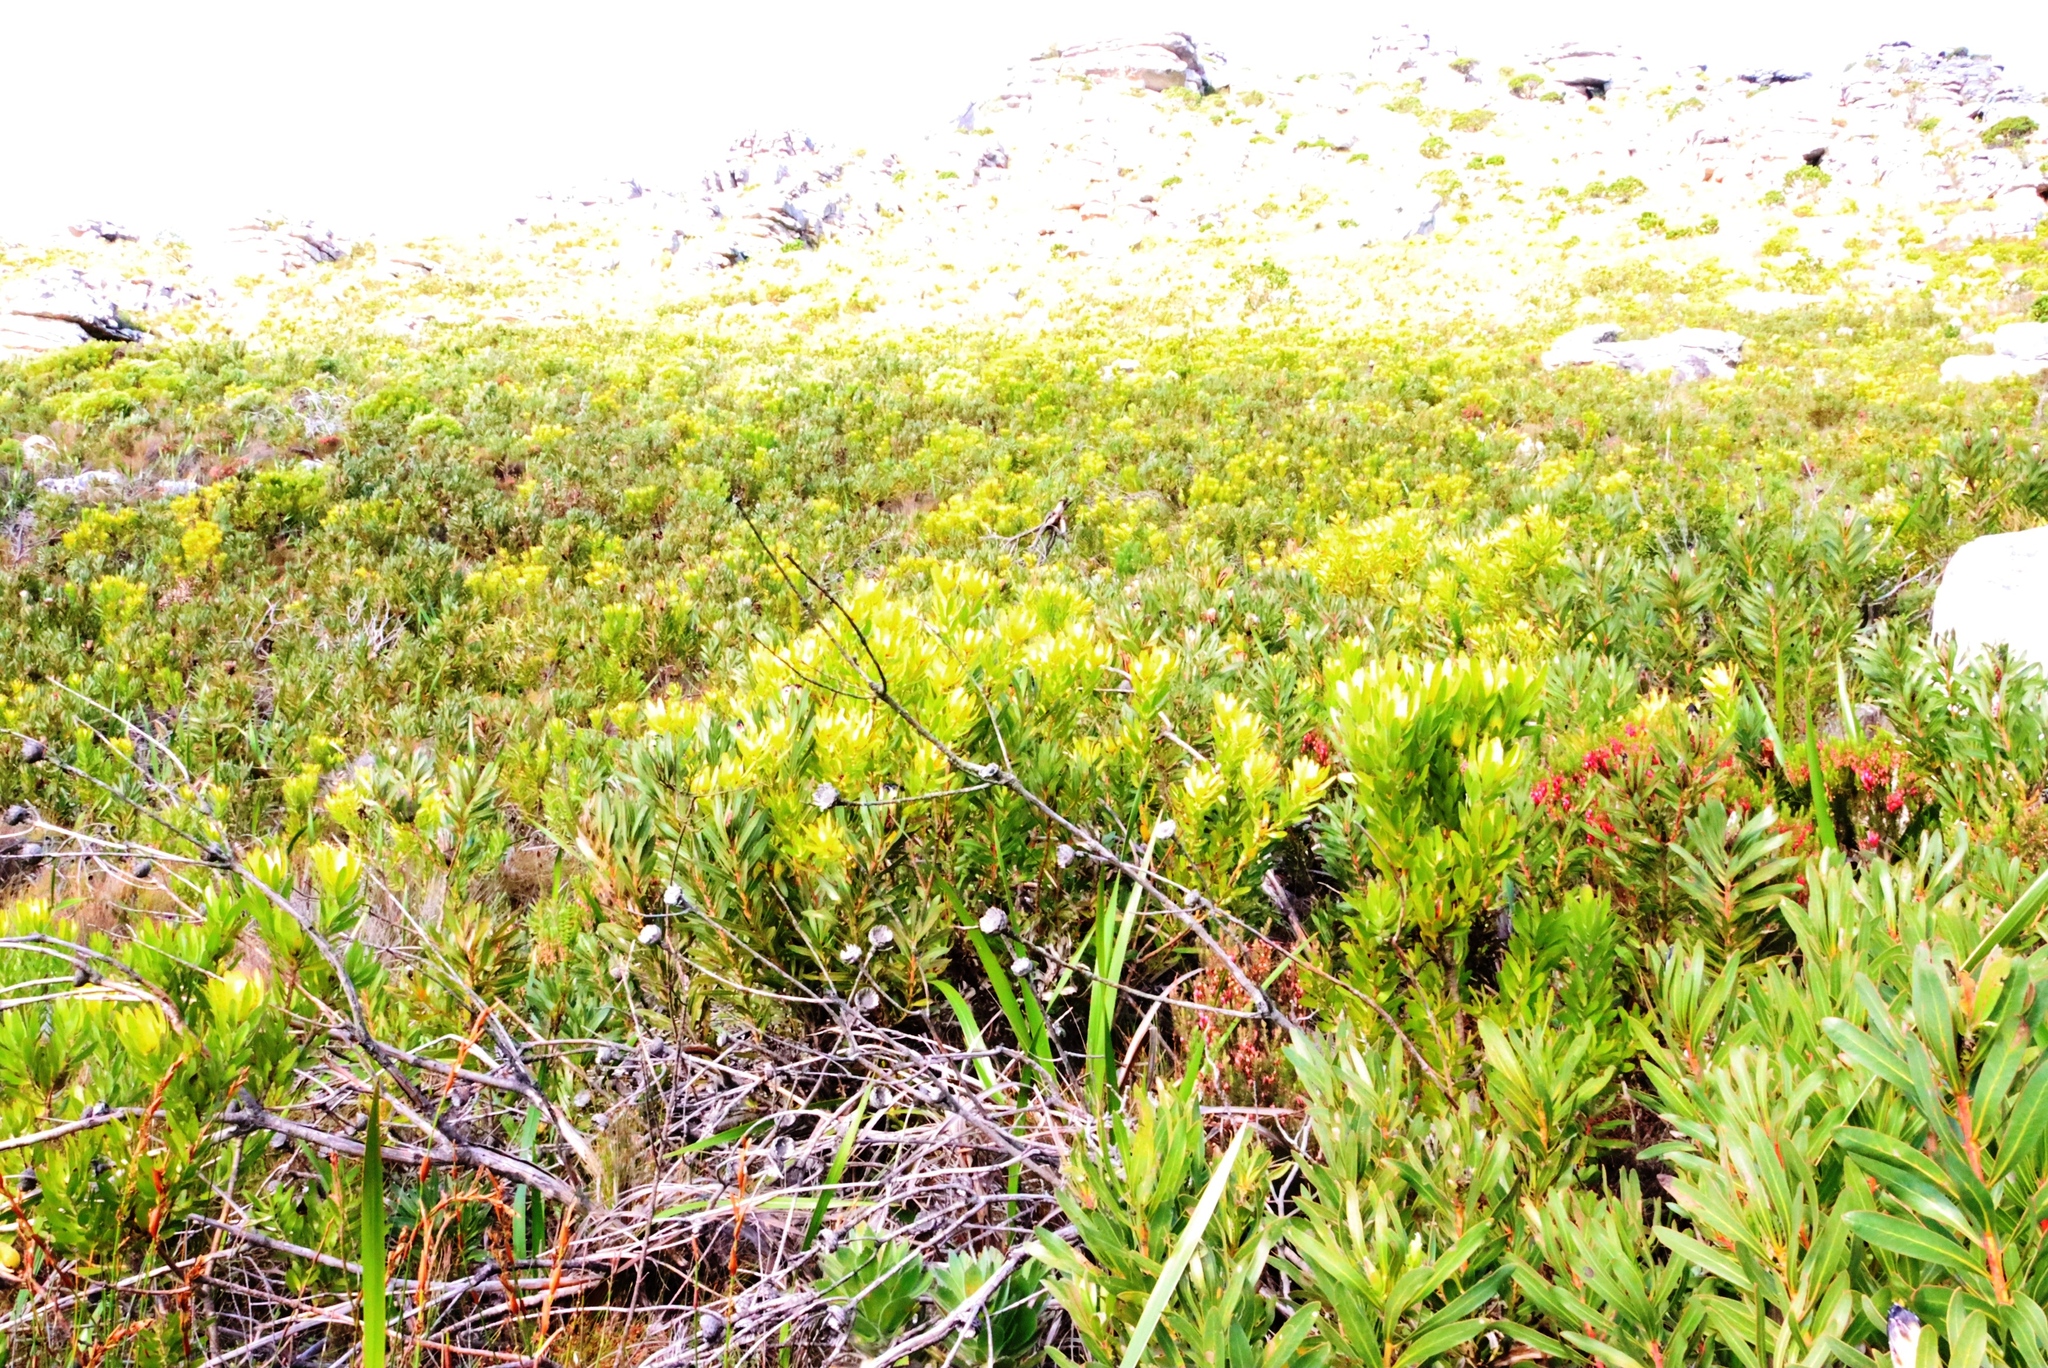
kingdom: Plantae
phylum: Tracheophyta
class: Magnoliopsida
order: Proteales
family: Proteaceae
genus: Leucadendron
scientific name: Leucadendron laureolum
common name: Golden sunshinebush
